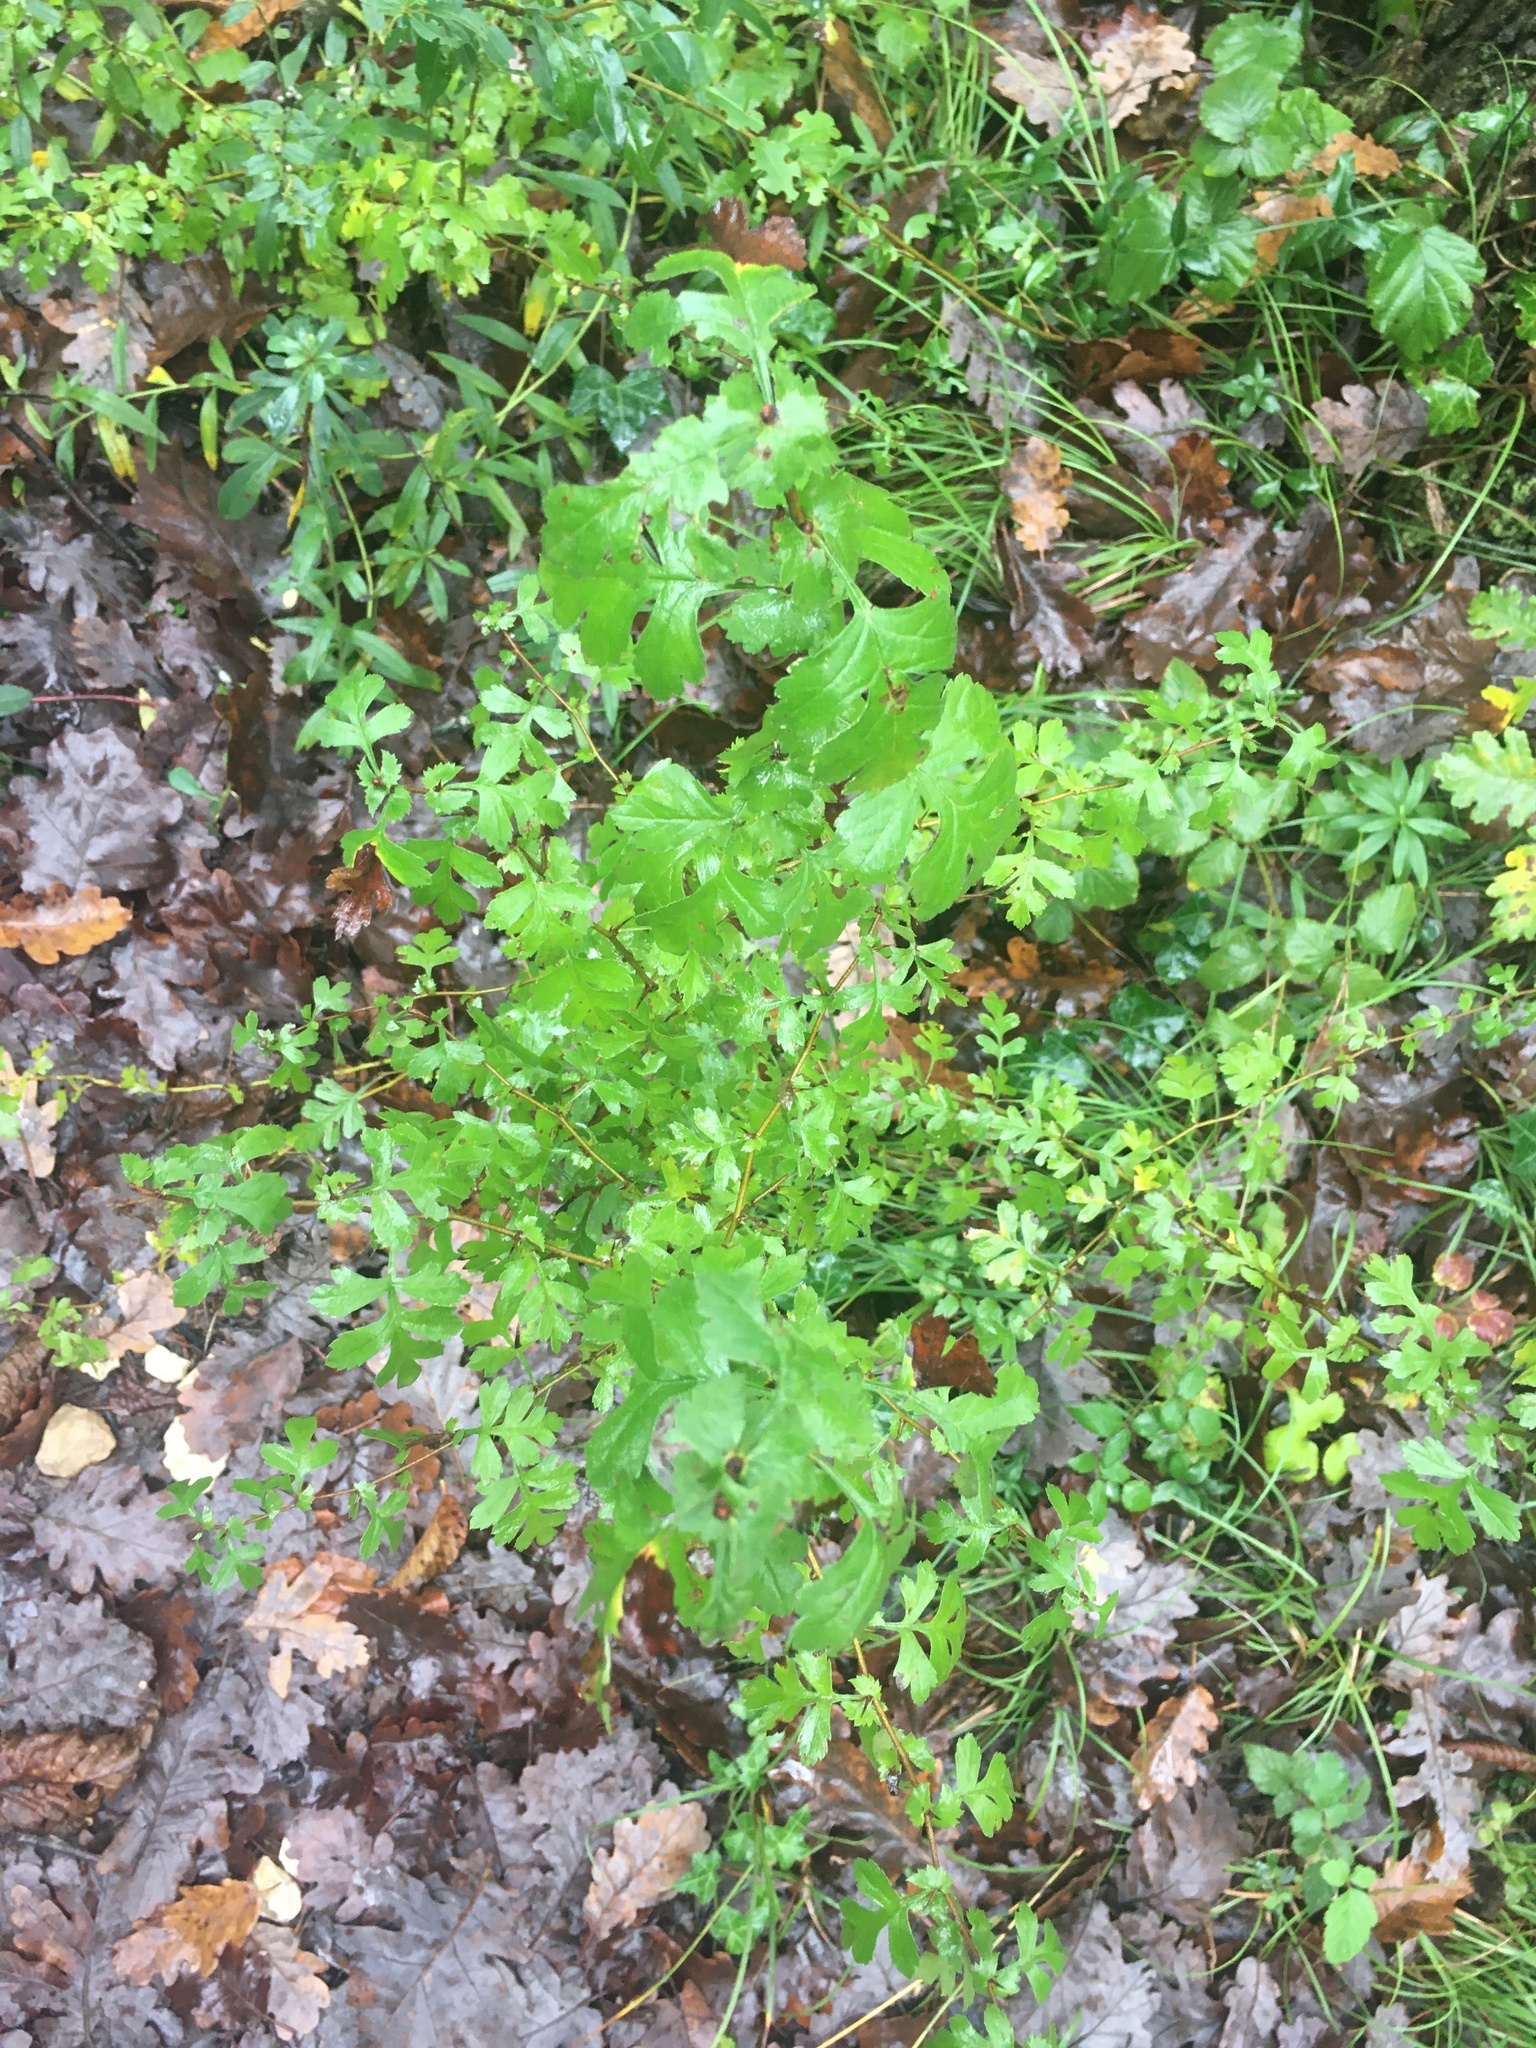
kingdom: Plantae
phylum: Tracheophyta
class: Magnoliopsida
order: Rosales
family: Rosaceae
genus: Crataegus
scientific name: Crataegus monogyna
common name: Hawthorn
